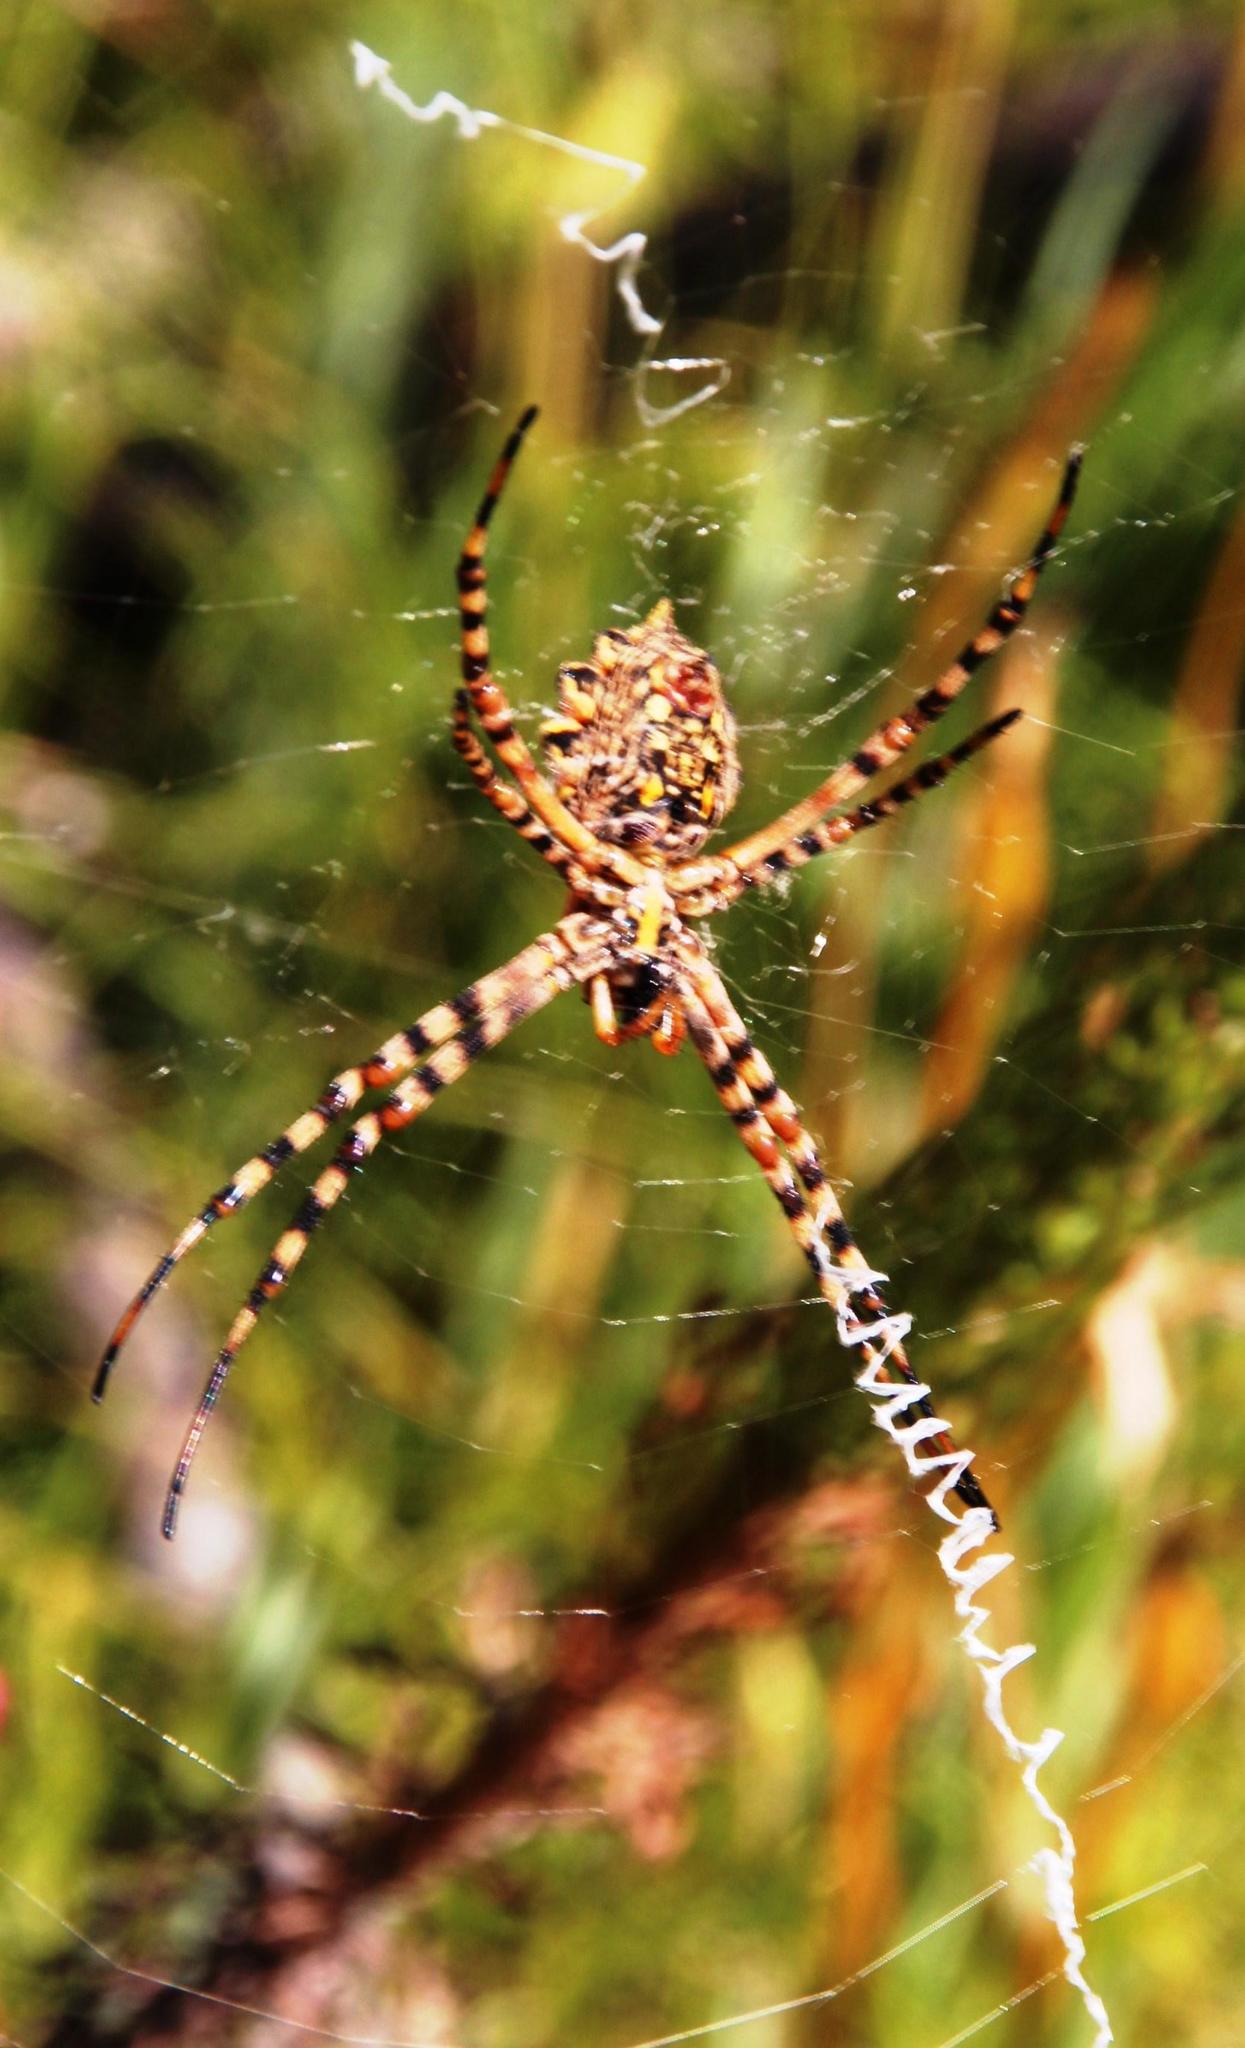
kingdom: Animalia
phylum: Arthropoda
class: Arachnida
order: Araneae
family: Araneidae
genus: Argiope
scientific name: Argiope australis
